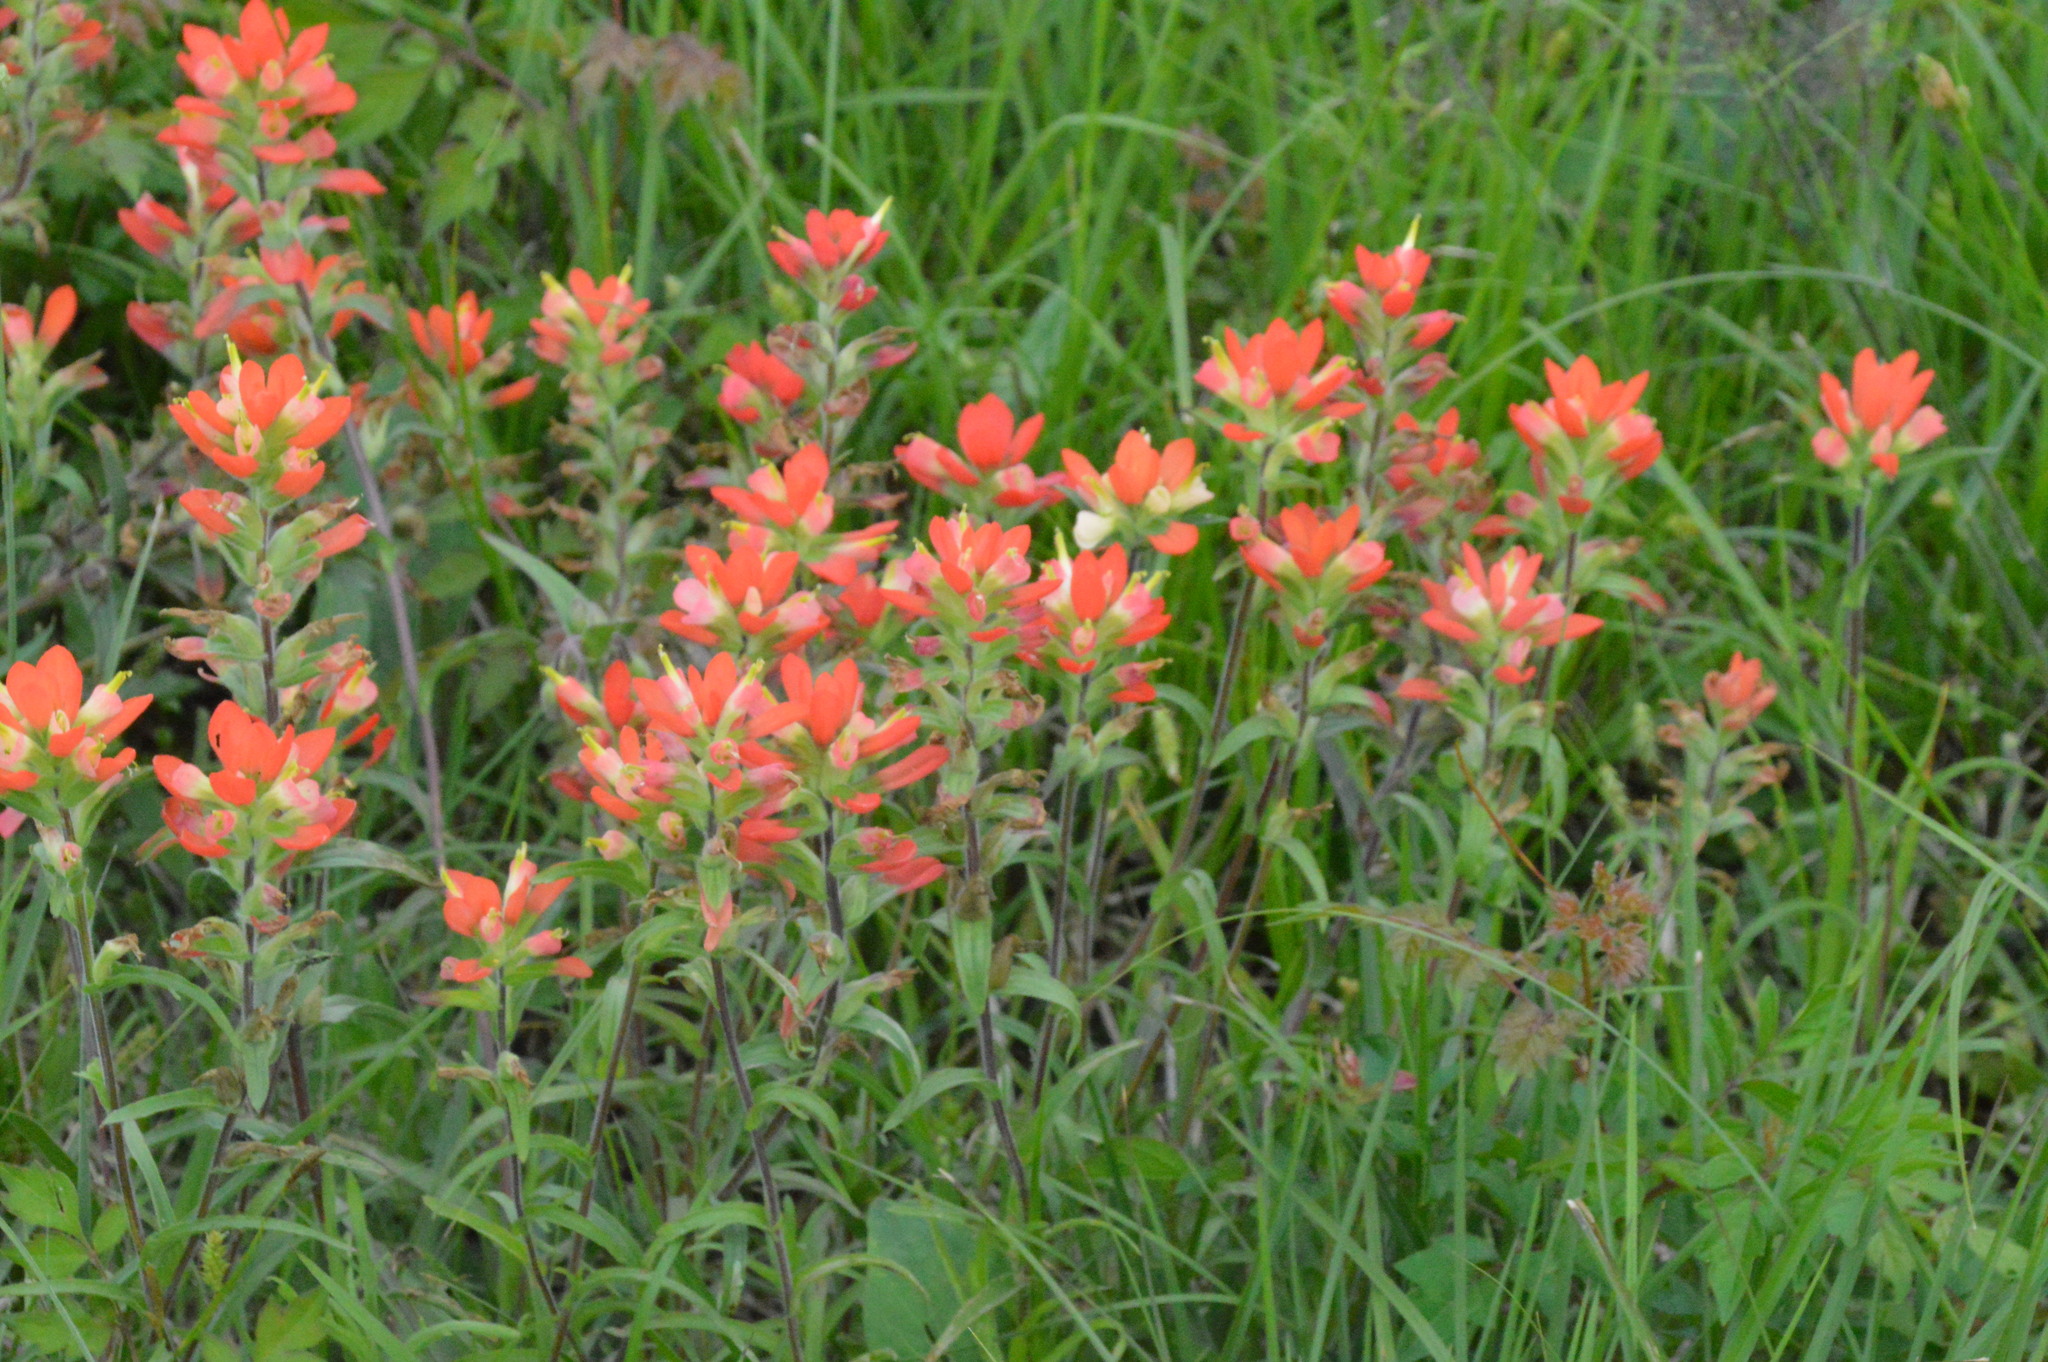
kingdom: Plantae
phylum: Tracheophyta
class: Magnoliopsida
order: Lamiales
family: Orobanchaceae
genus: Castilleja
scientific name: Castilleja indivisa
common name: Texas paintbrush
